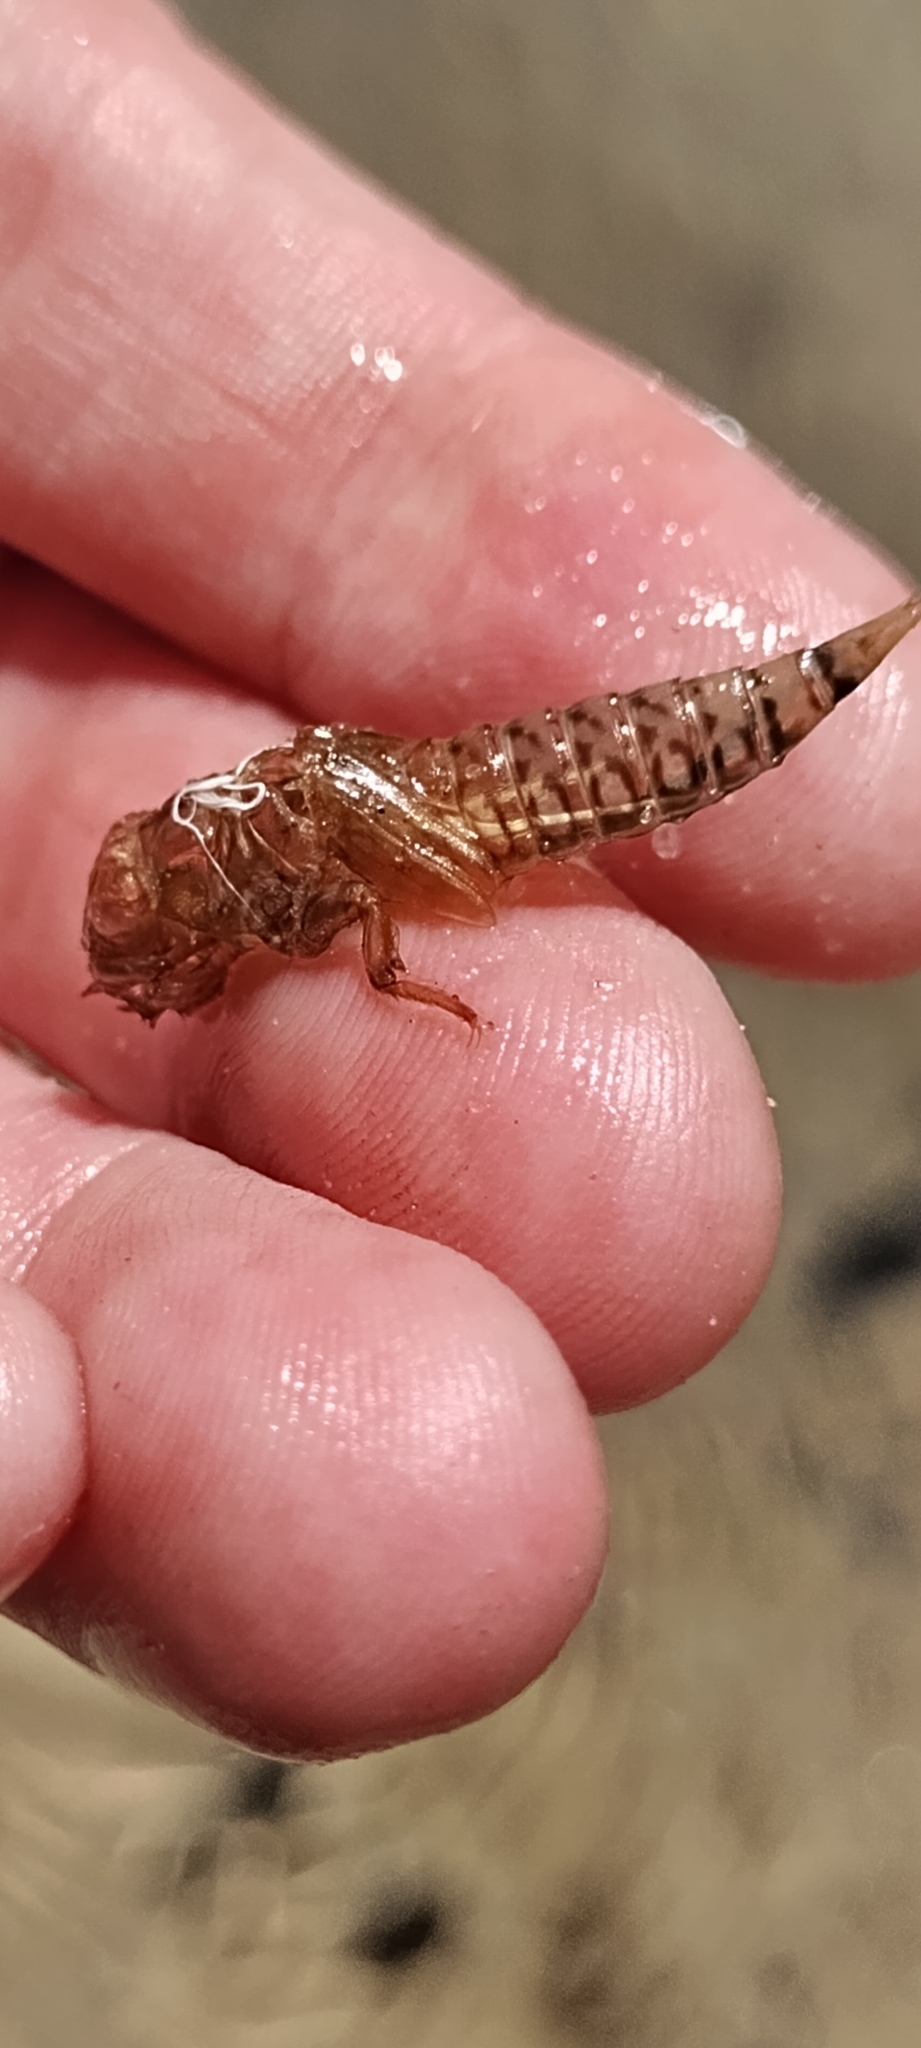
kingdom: Animalia
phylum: Arthropoda
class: Insecta
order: Odonata
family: Gomphidae
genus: Progomphus
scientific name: Progomphus obscurus
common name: Common sanddragon
